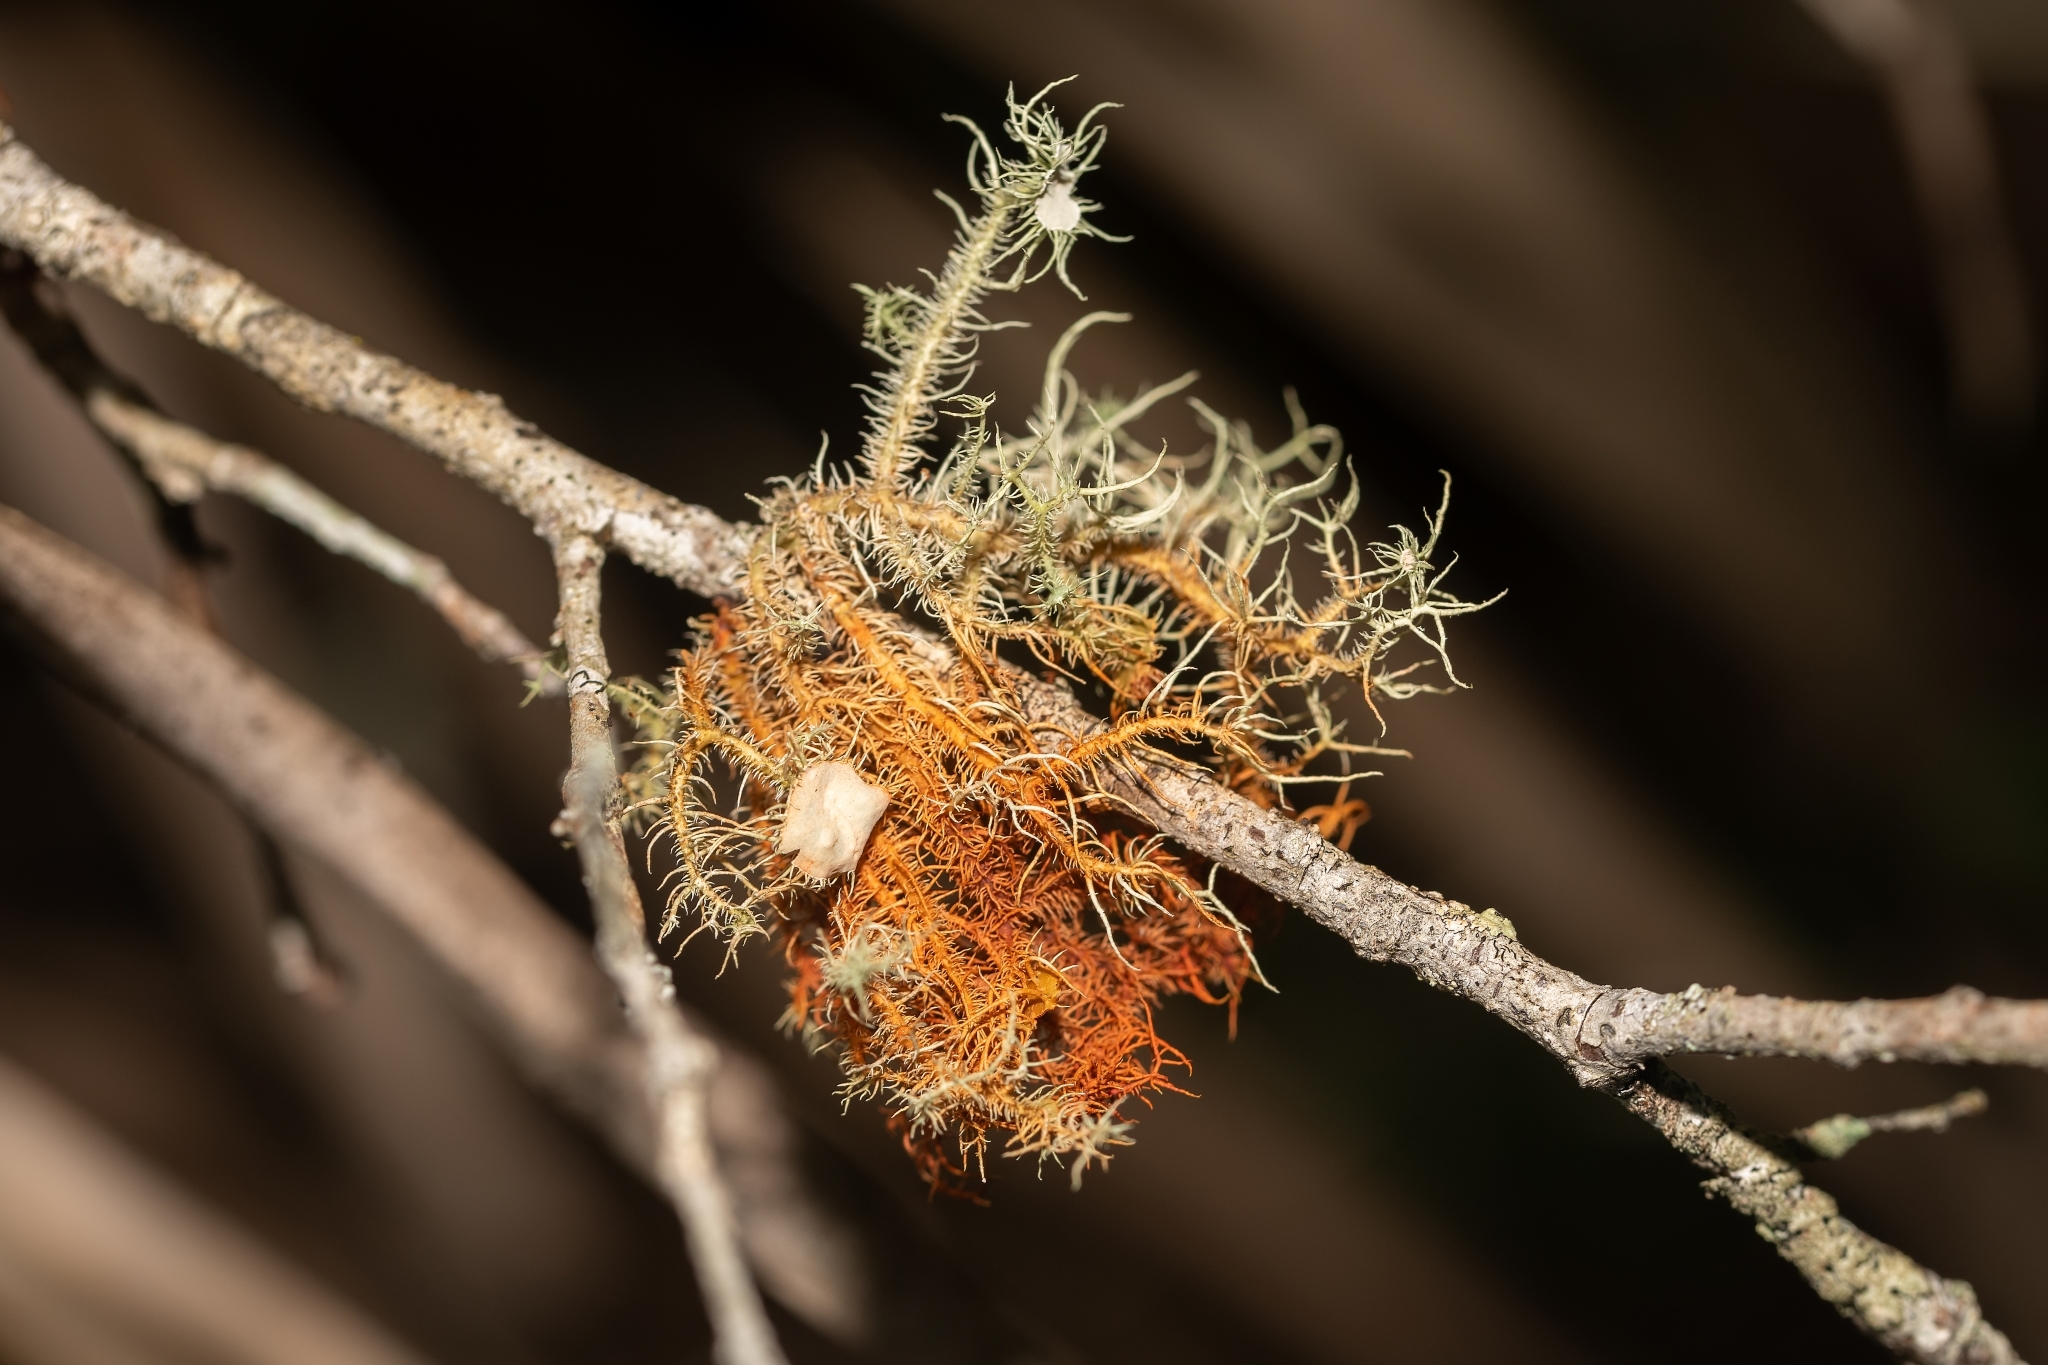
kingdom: Fungi
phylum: Ascomycota
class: Lecanoromycetes
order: Lecanorales
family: Parmeliaceae
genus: Usnea
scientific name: Usnea strigosa
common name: Bushy beard lichen
